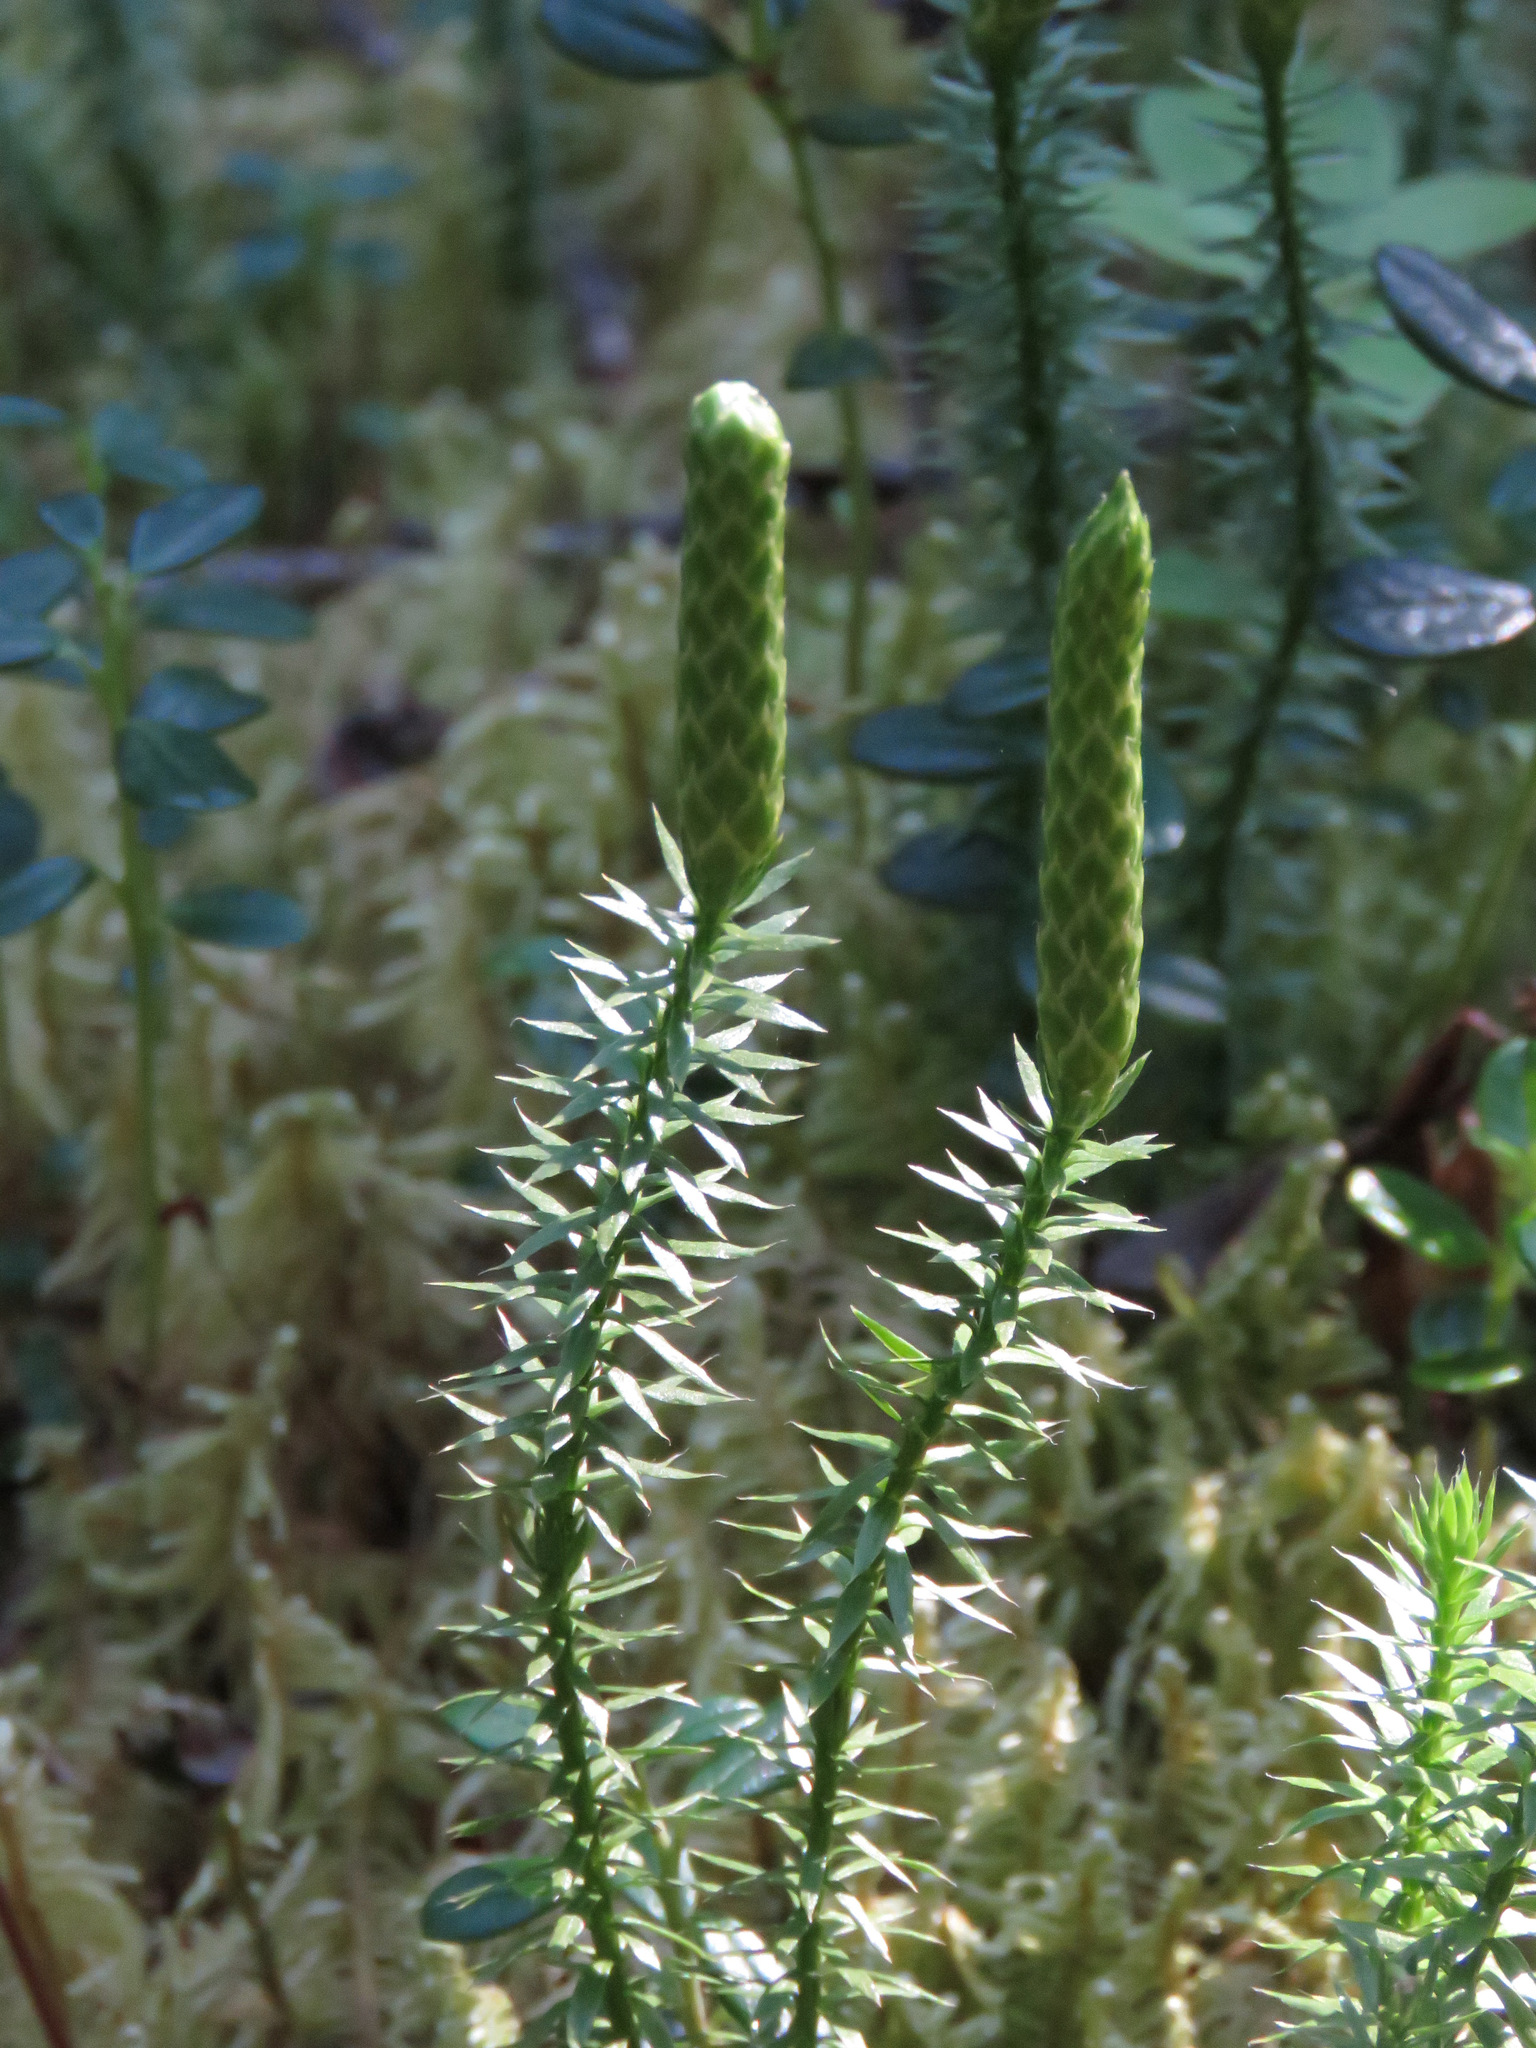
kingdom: Plantae
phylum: Tracheophyta
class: Lycopodiopsida
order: Lycopodiales
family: Lycopodiaceae
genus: Spinulum
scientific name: Spinulum annotinum
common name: Interrupted club-moss
